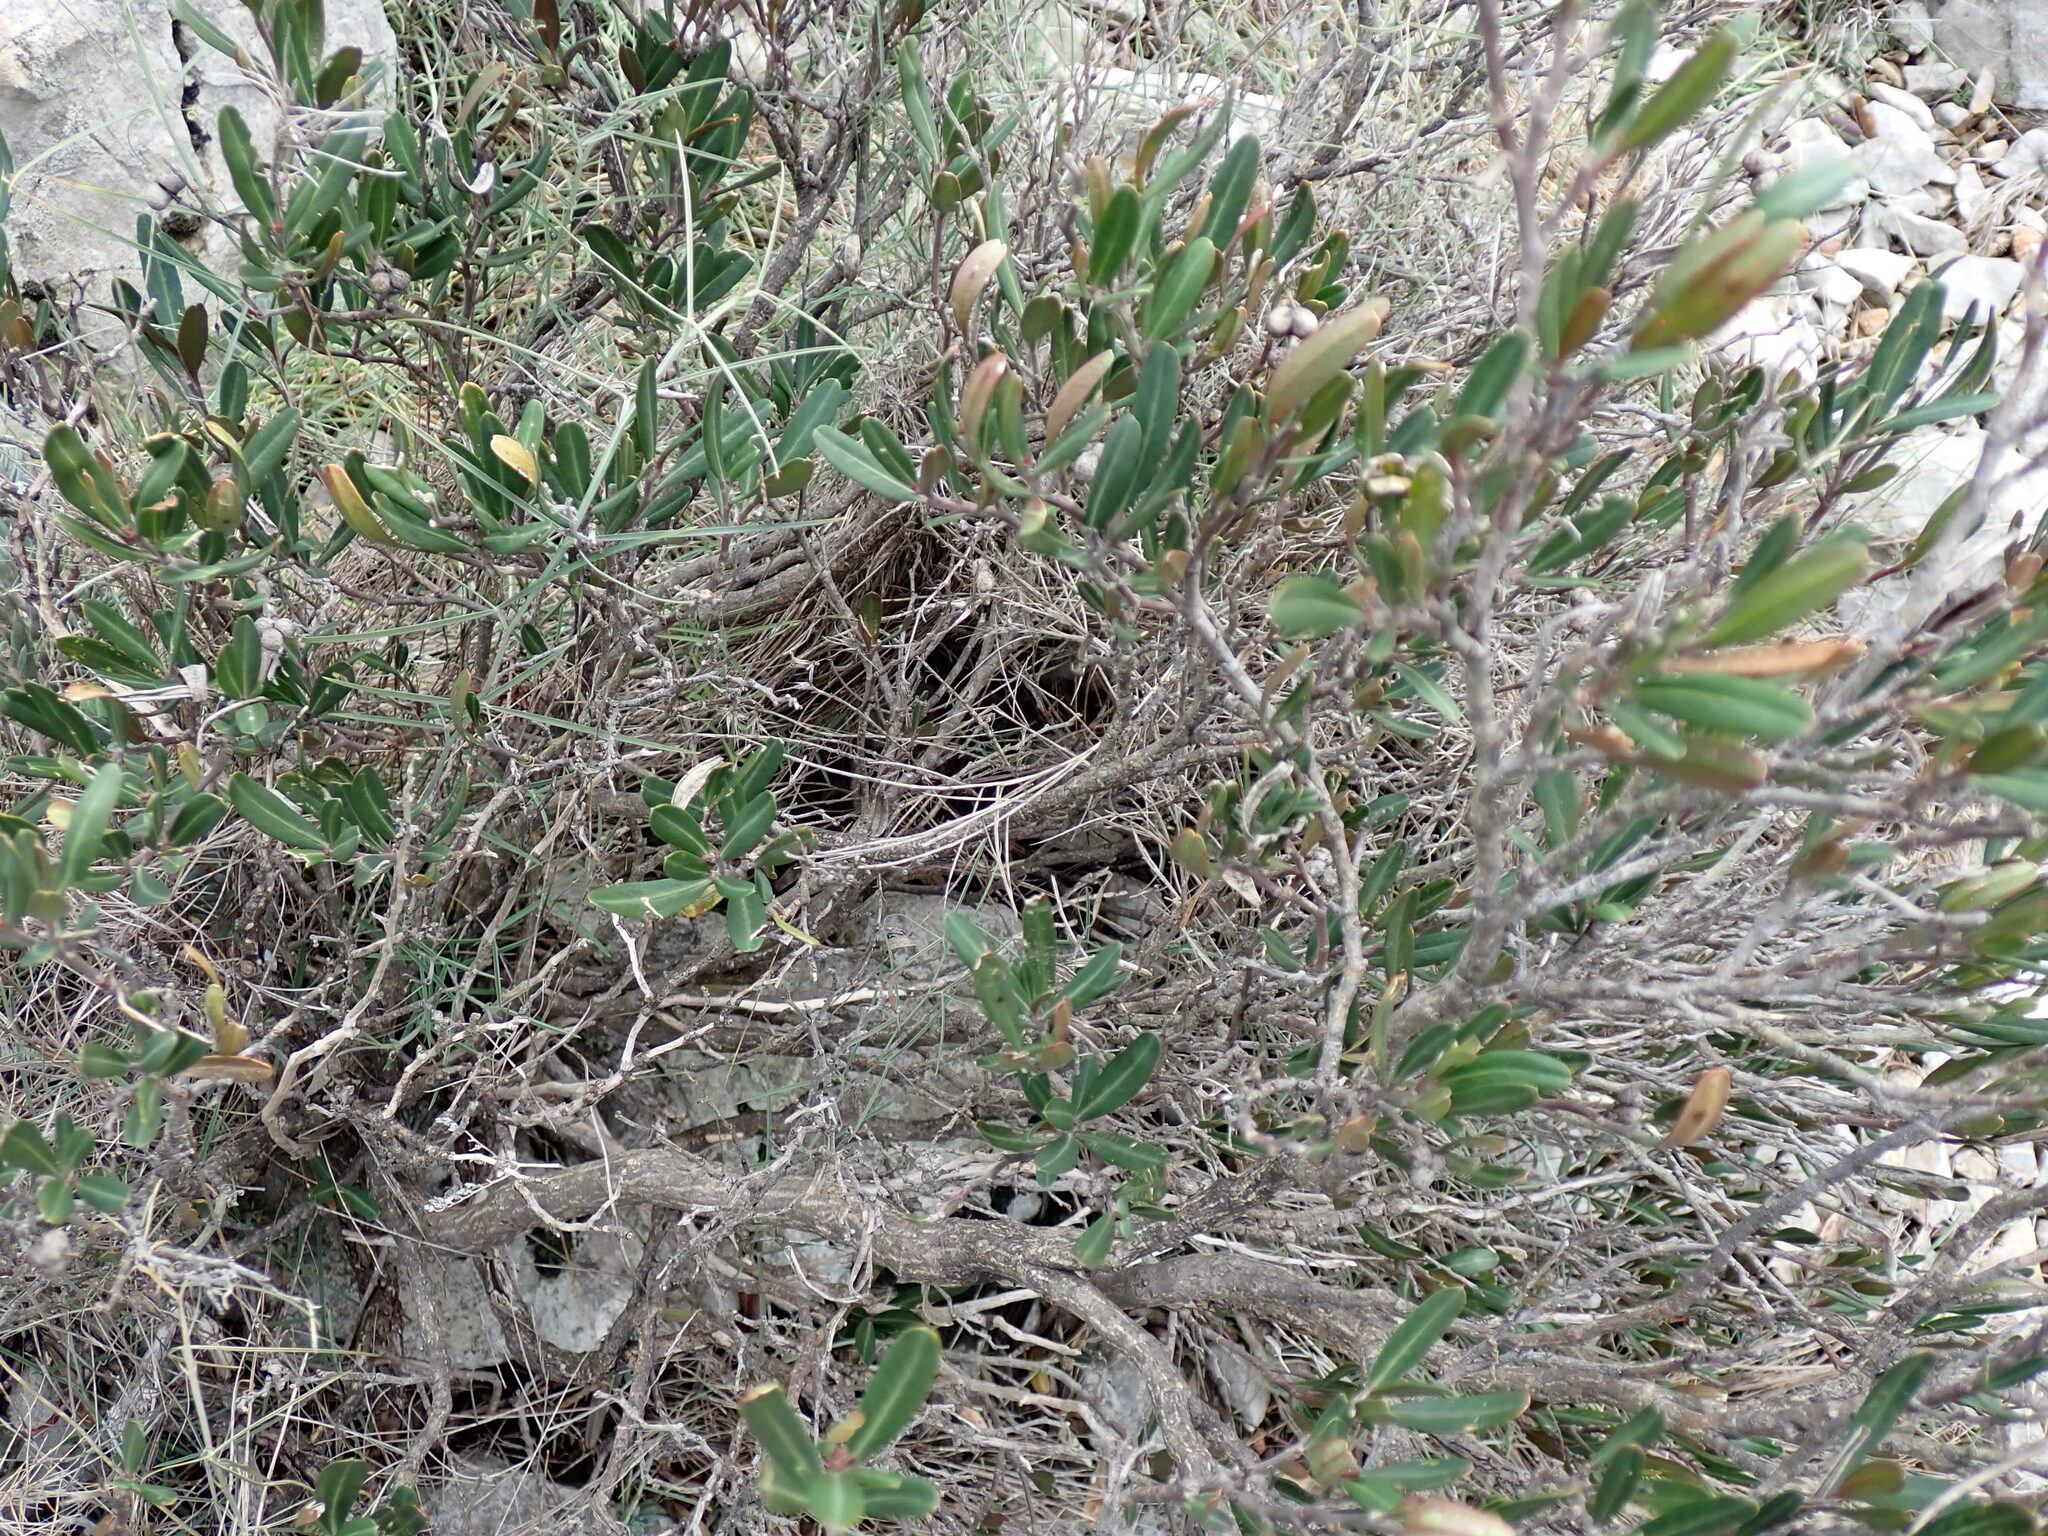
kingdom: Plantae
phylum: Tracheophyta
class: Magnoliopsida
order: Sapindales
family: Rutaceae
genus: Cneorum
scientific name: Cneorum tricoccon
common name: Spurge olive
